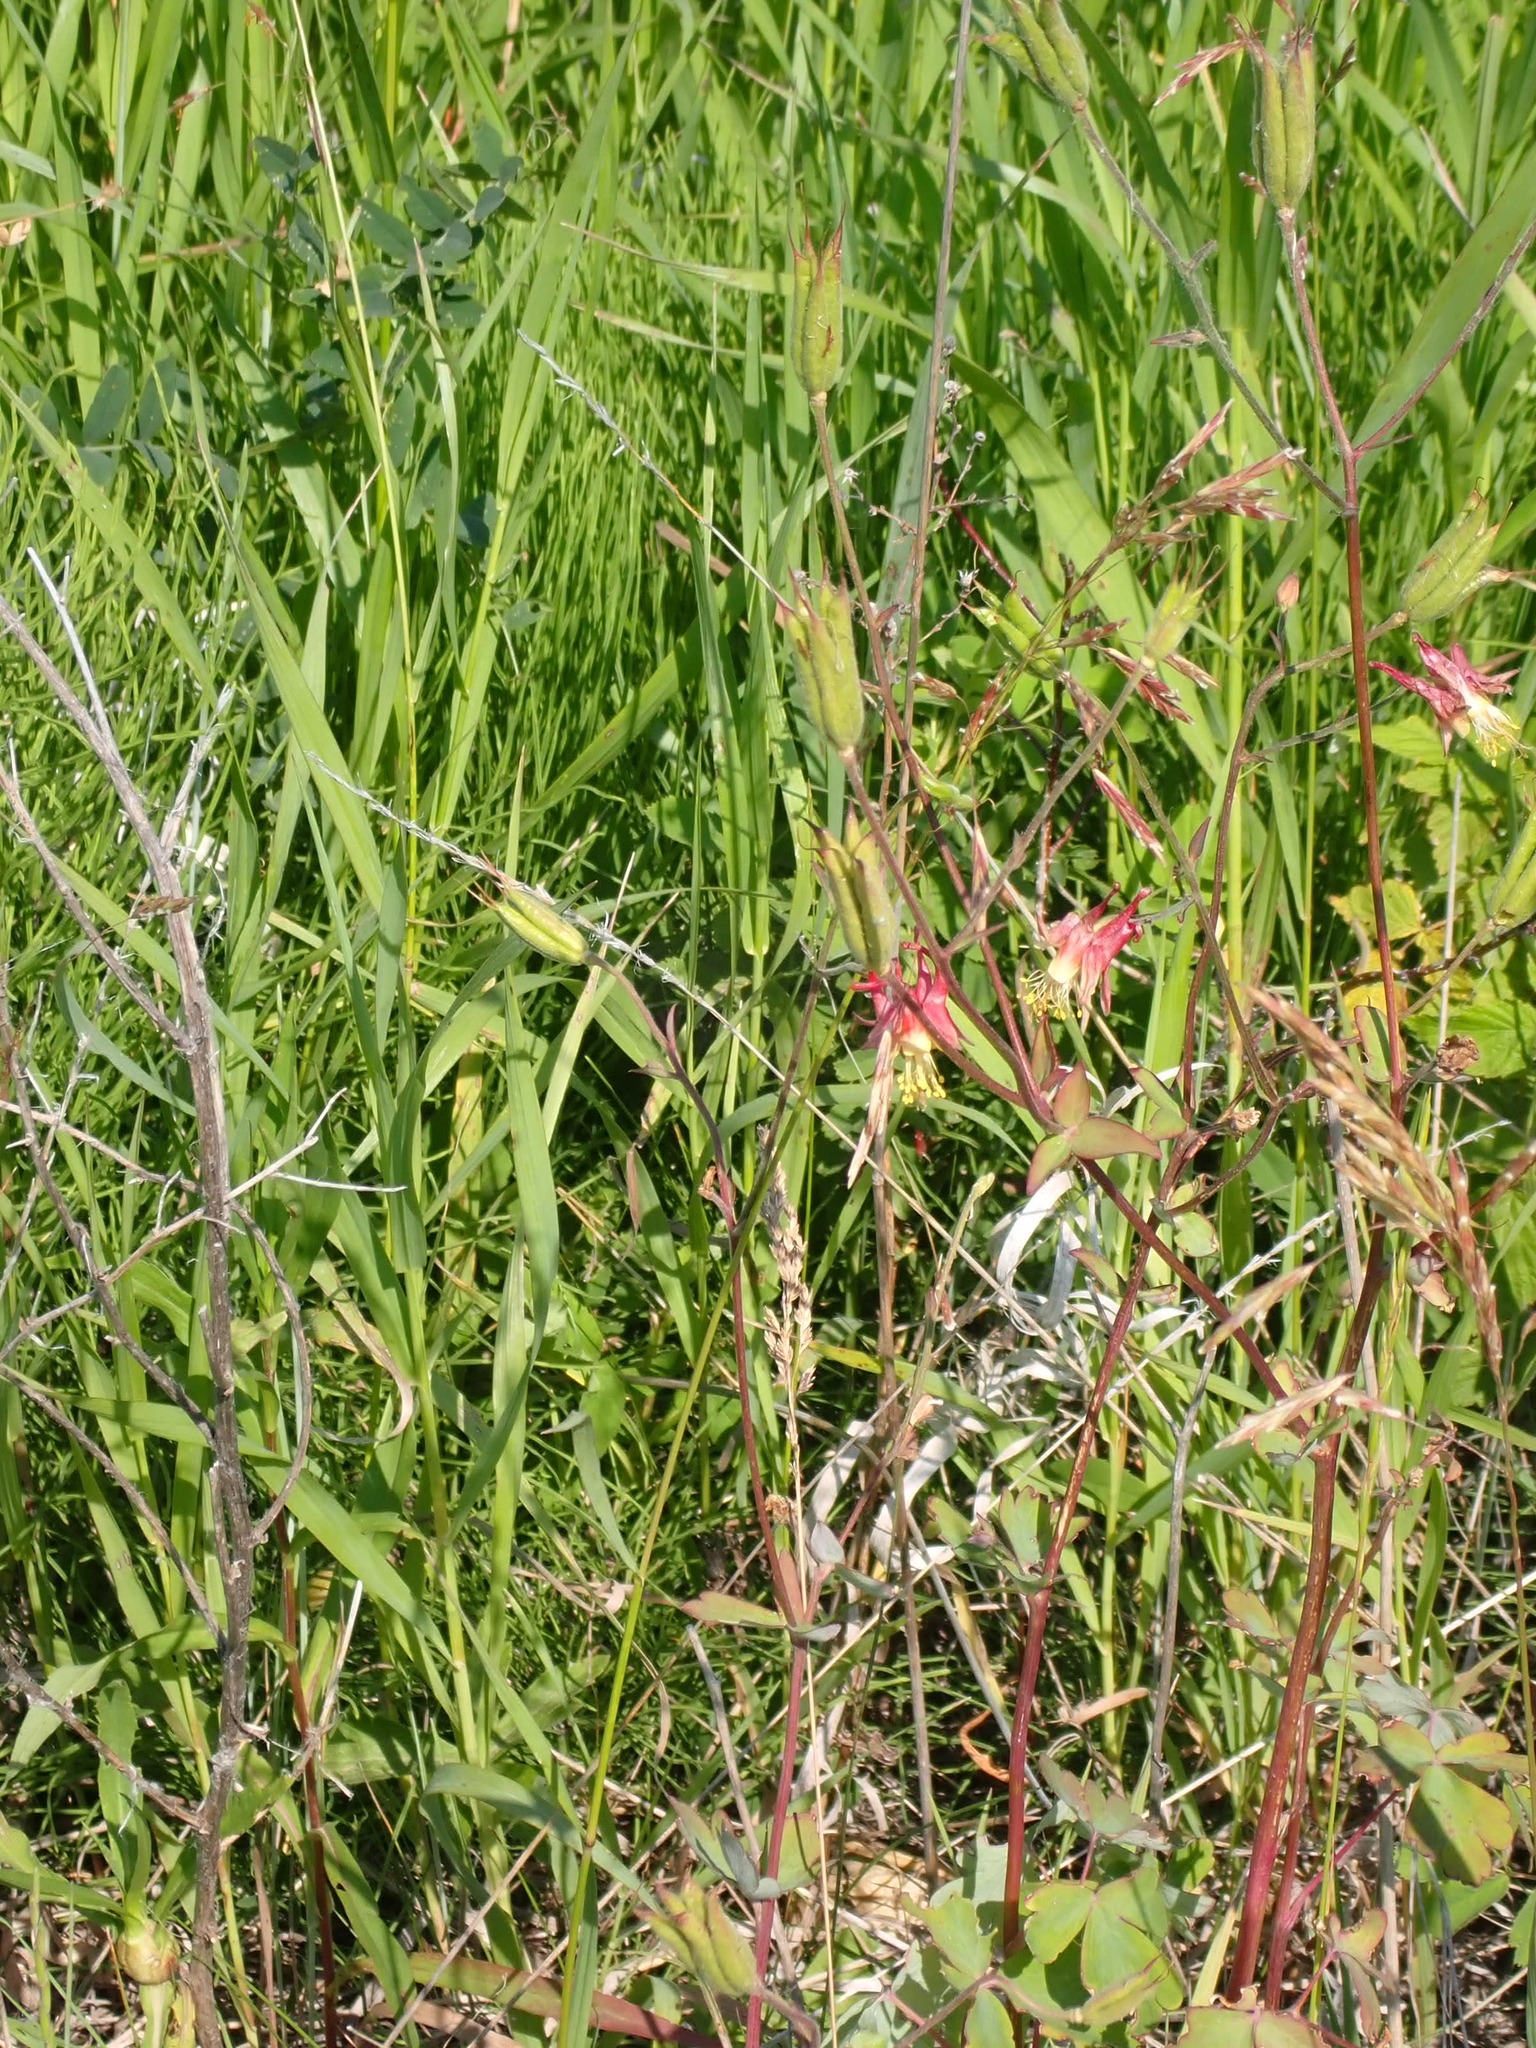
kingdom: Plantae
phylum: Tracheophyta
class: Magnoliopsida
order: Ranunculales
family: Ranunculaceae
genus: Aquilegia
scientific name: Aquilegia canadensis
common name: American columbine
